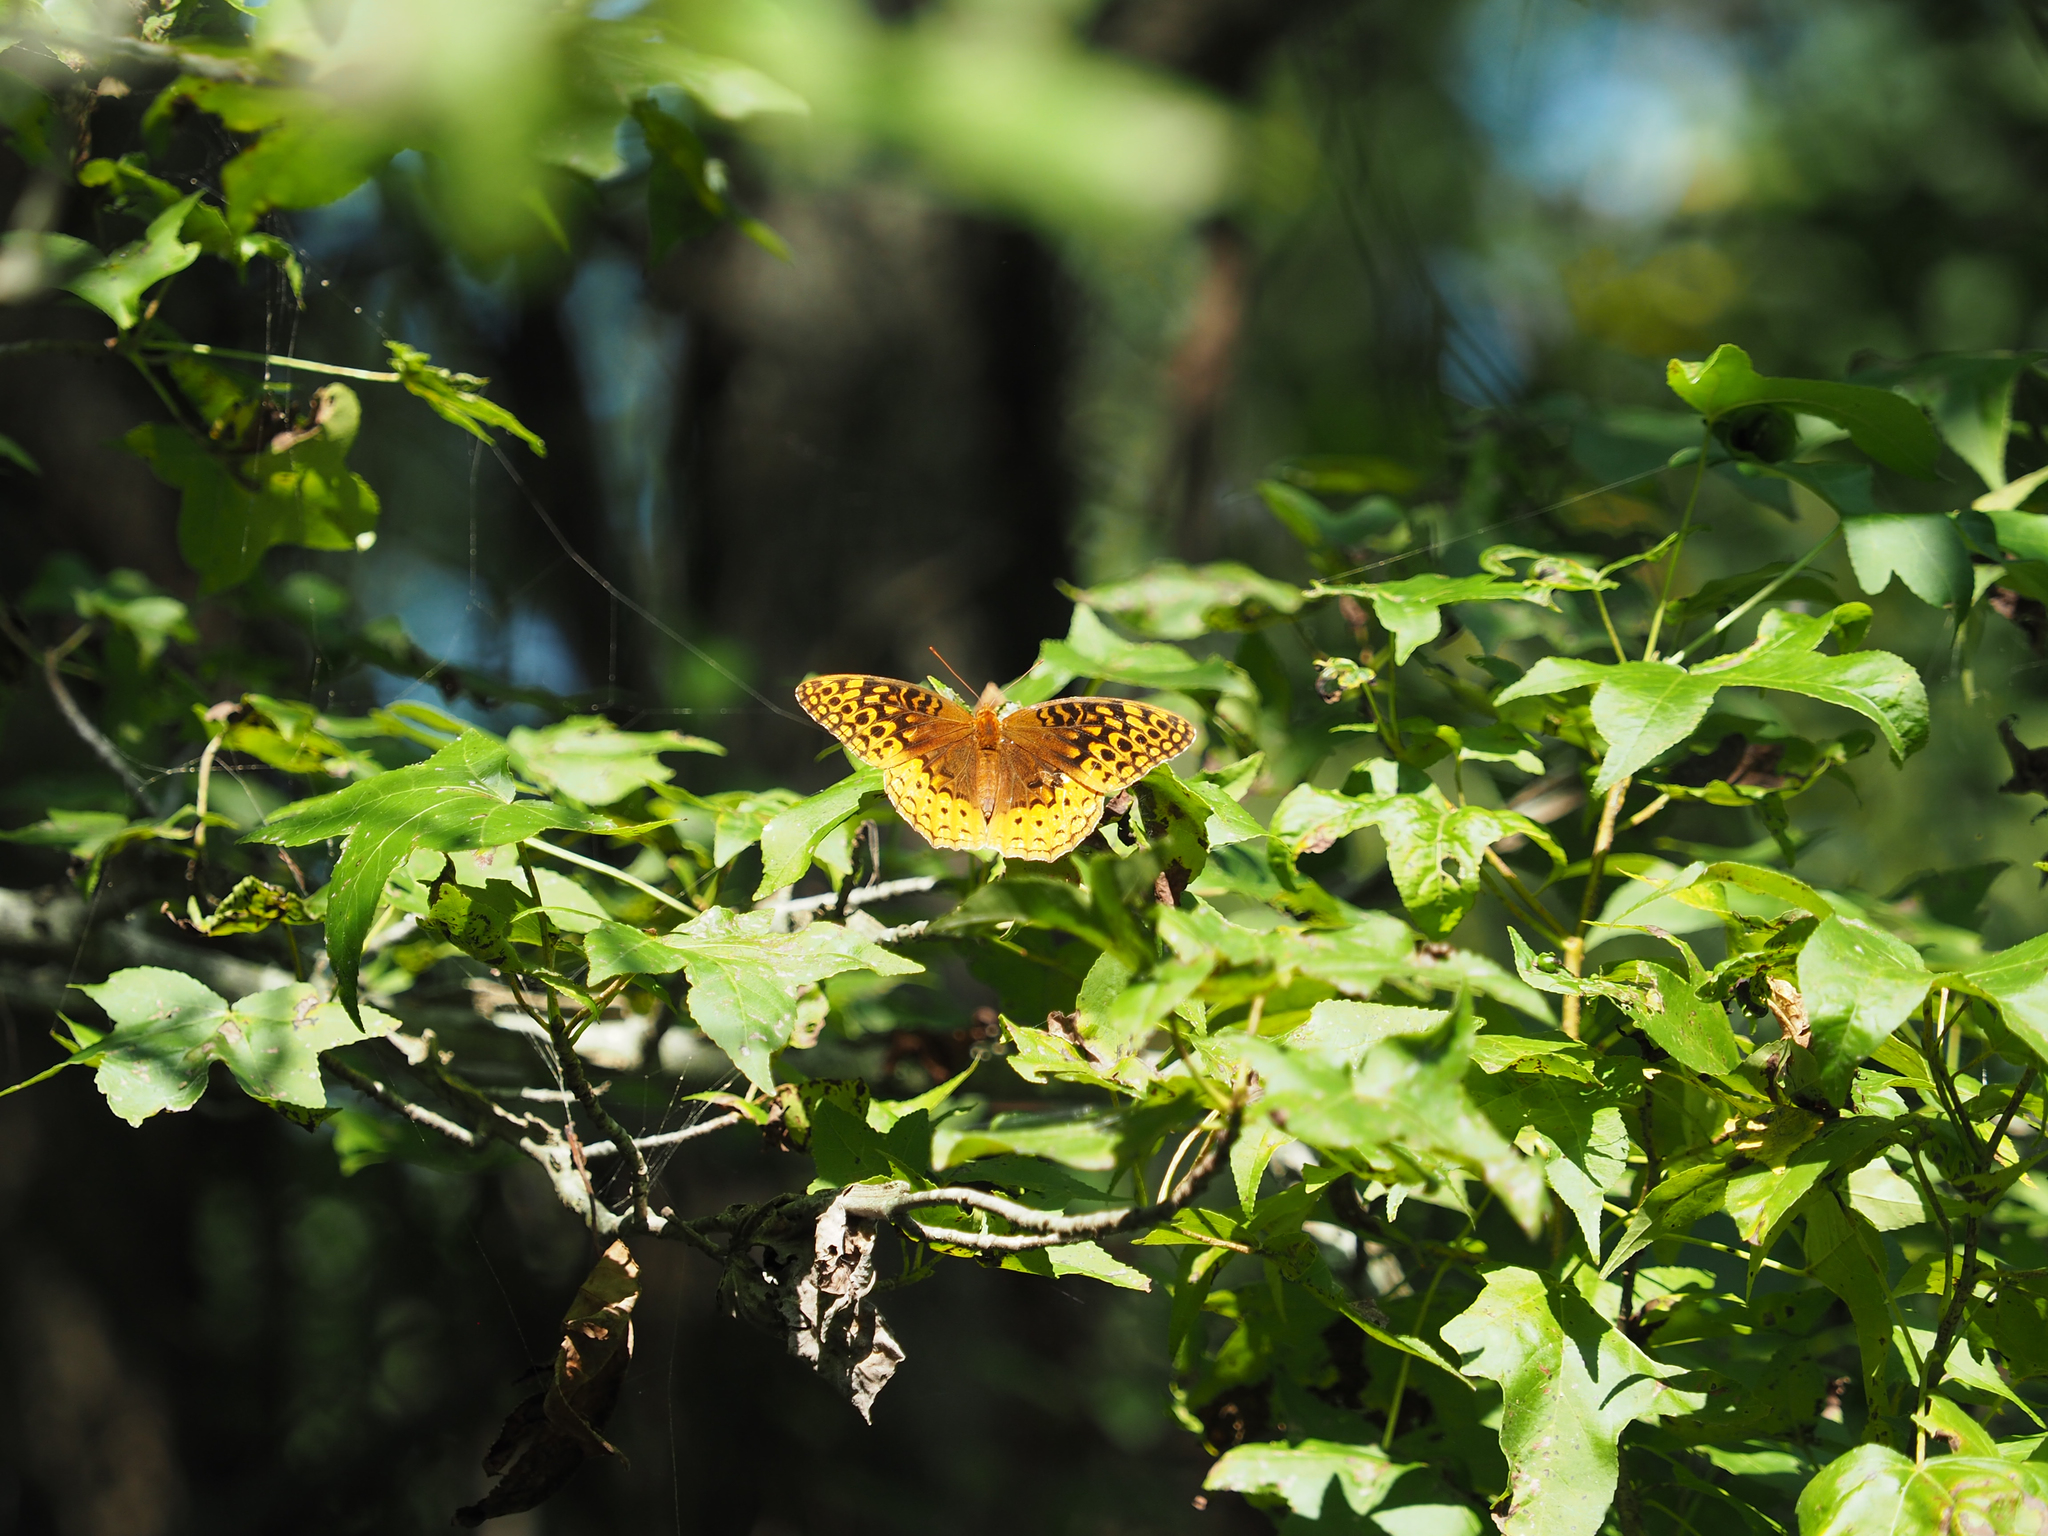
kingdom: Animalia
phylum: Arthropoda
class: Insecta
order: Lepidoptera
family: Nymphalidae
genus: Speyeria
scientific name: Speyeria cybele
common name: Great spangled fritillary
